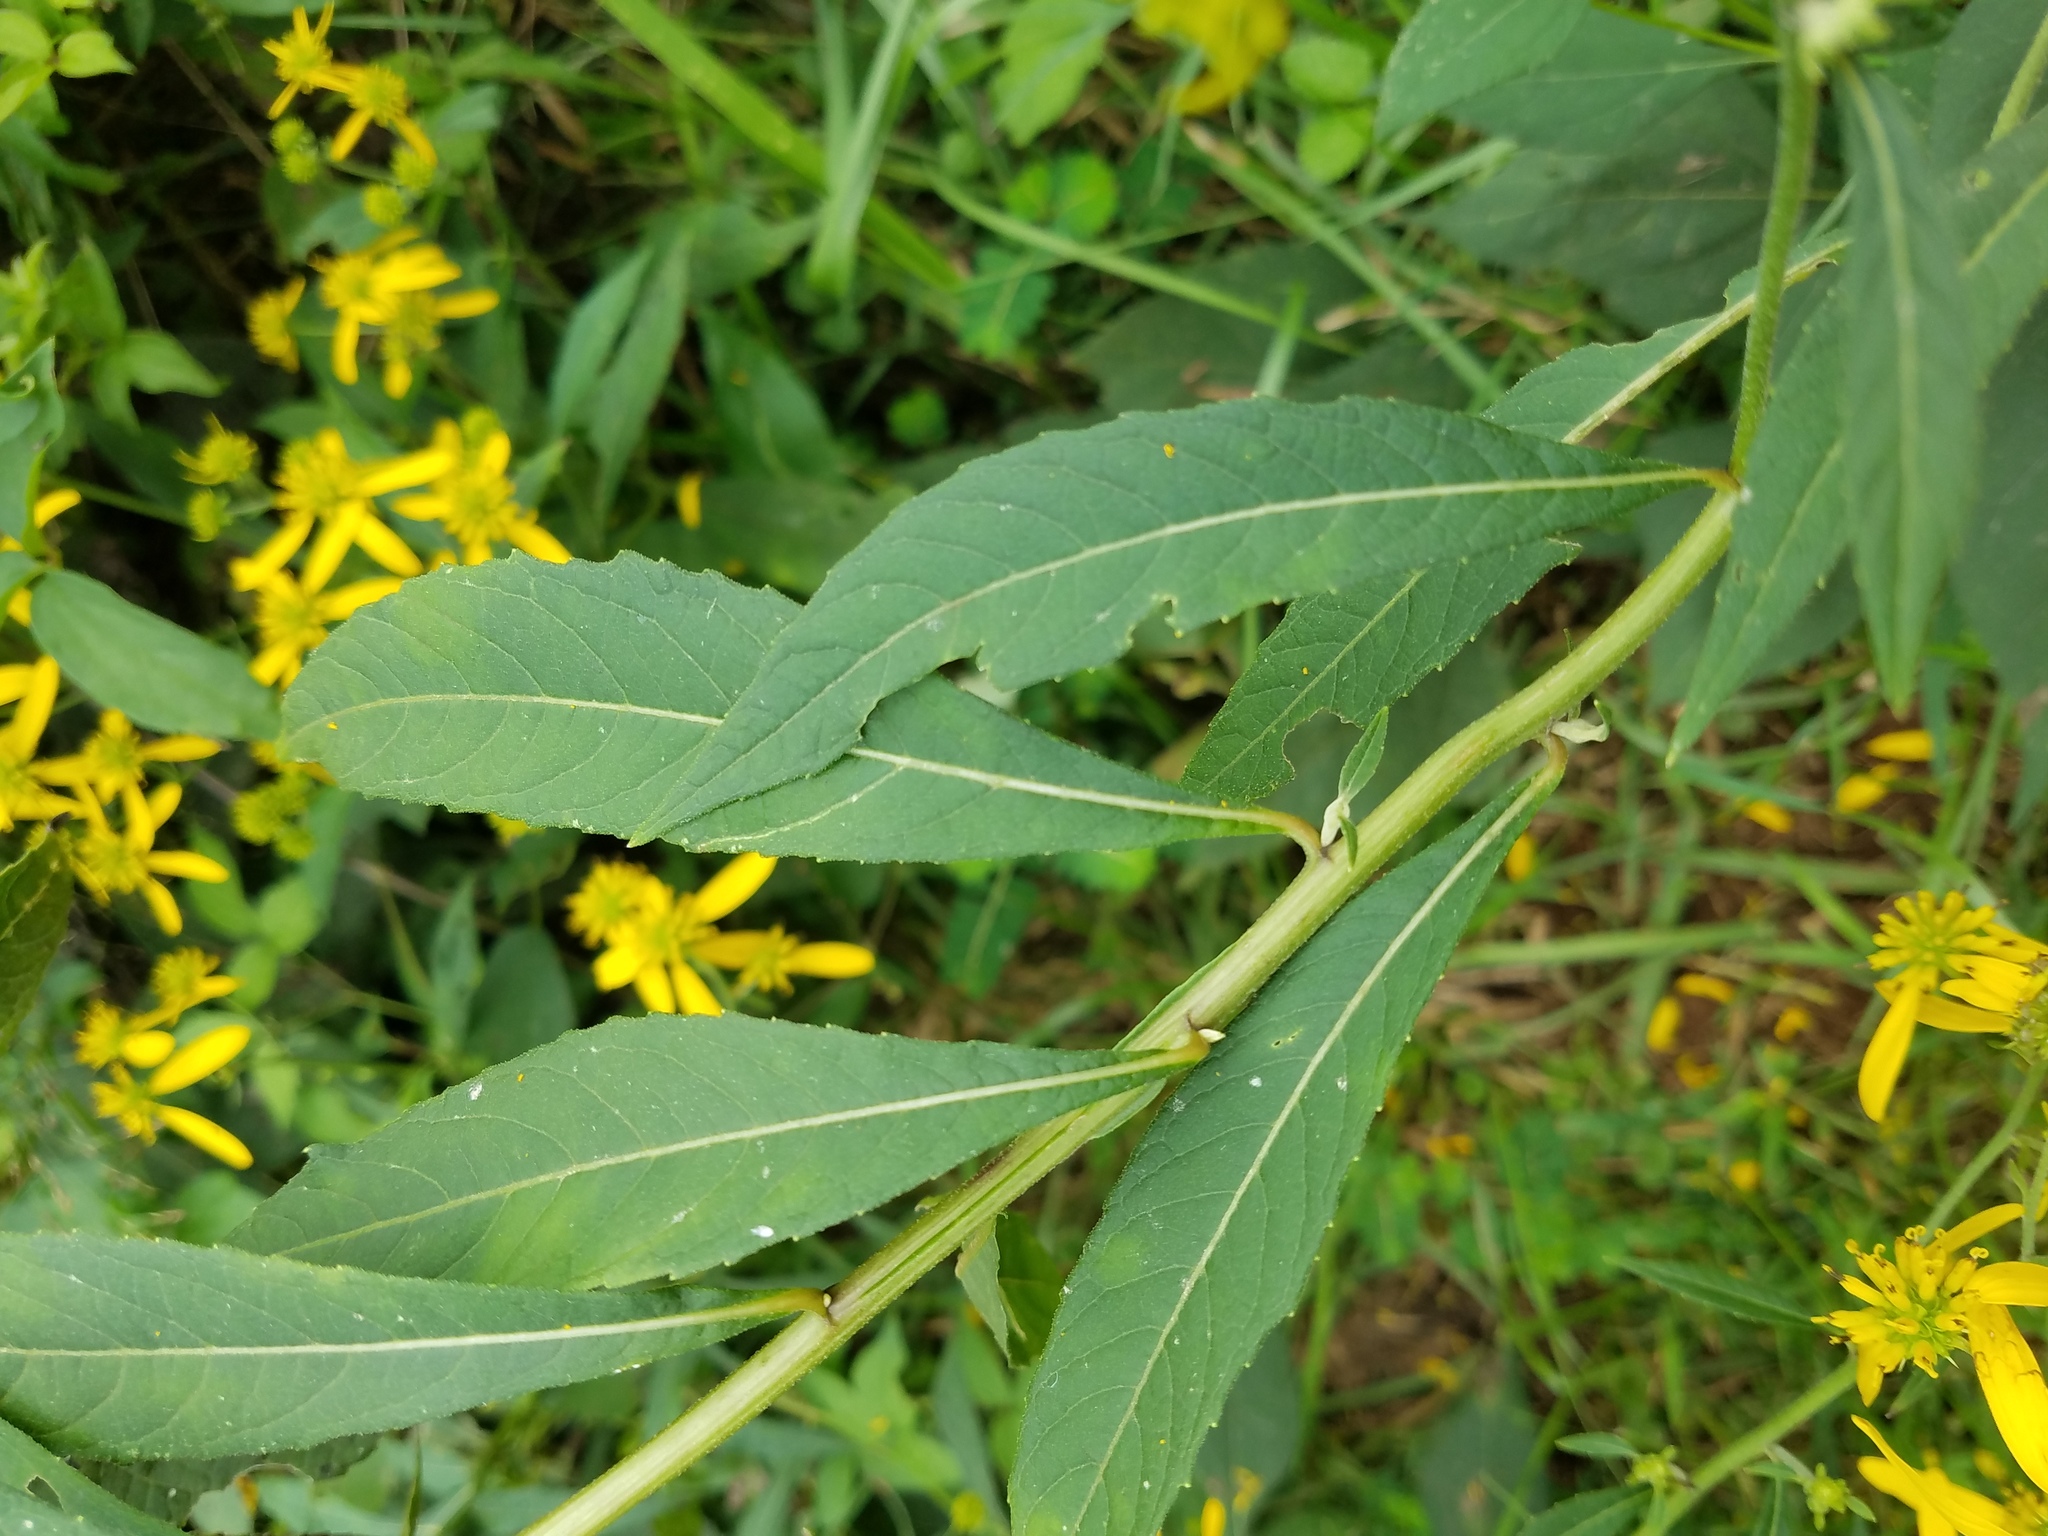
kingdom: Plantae
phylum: Tracheophyta
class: Magnoliopsida
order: Asterales
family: Asteraceae
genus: Verbesina
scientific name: Verbesina alternifolia
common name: Wingstem
